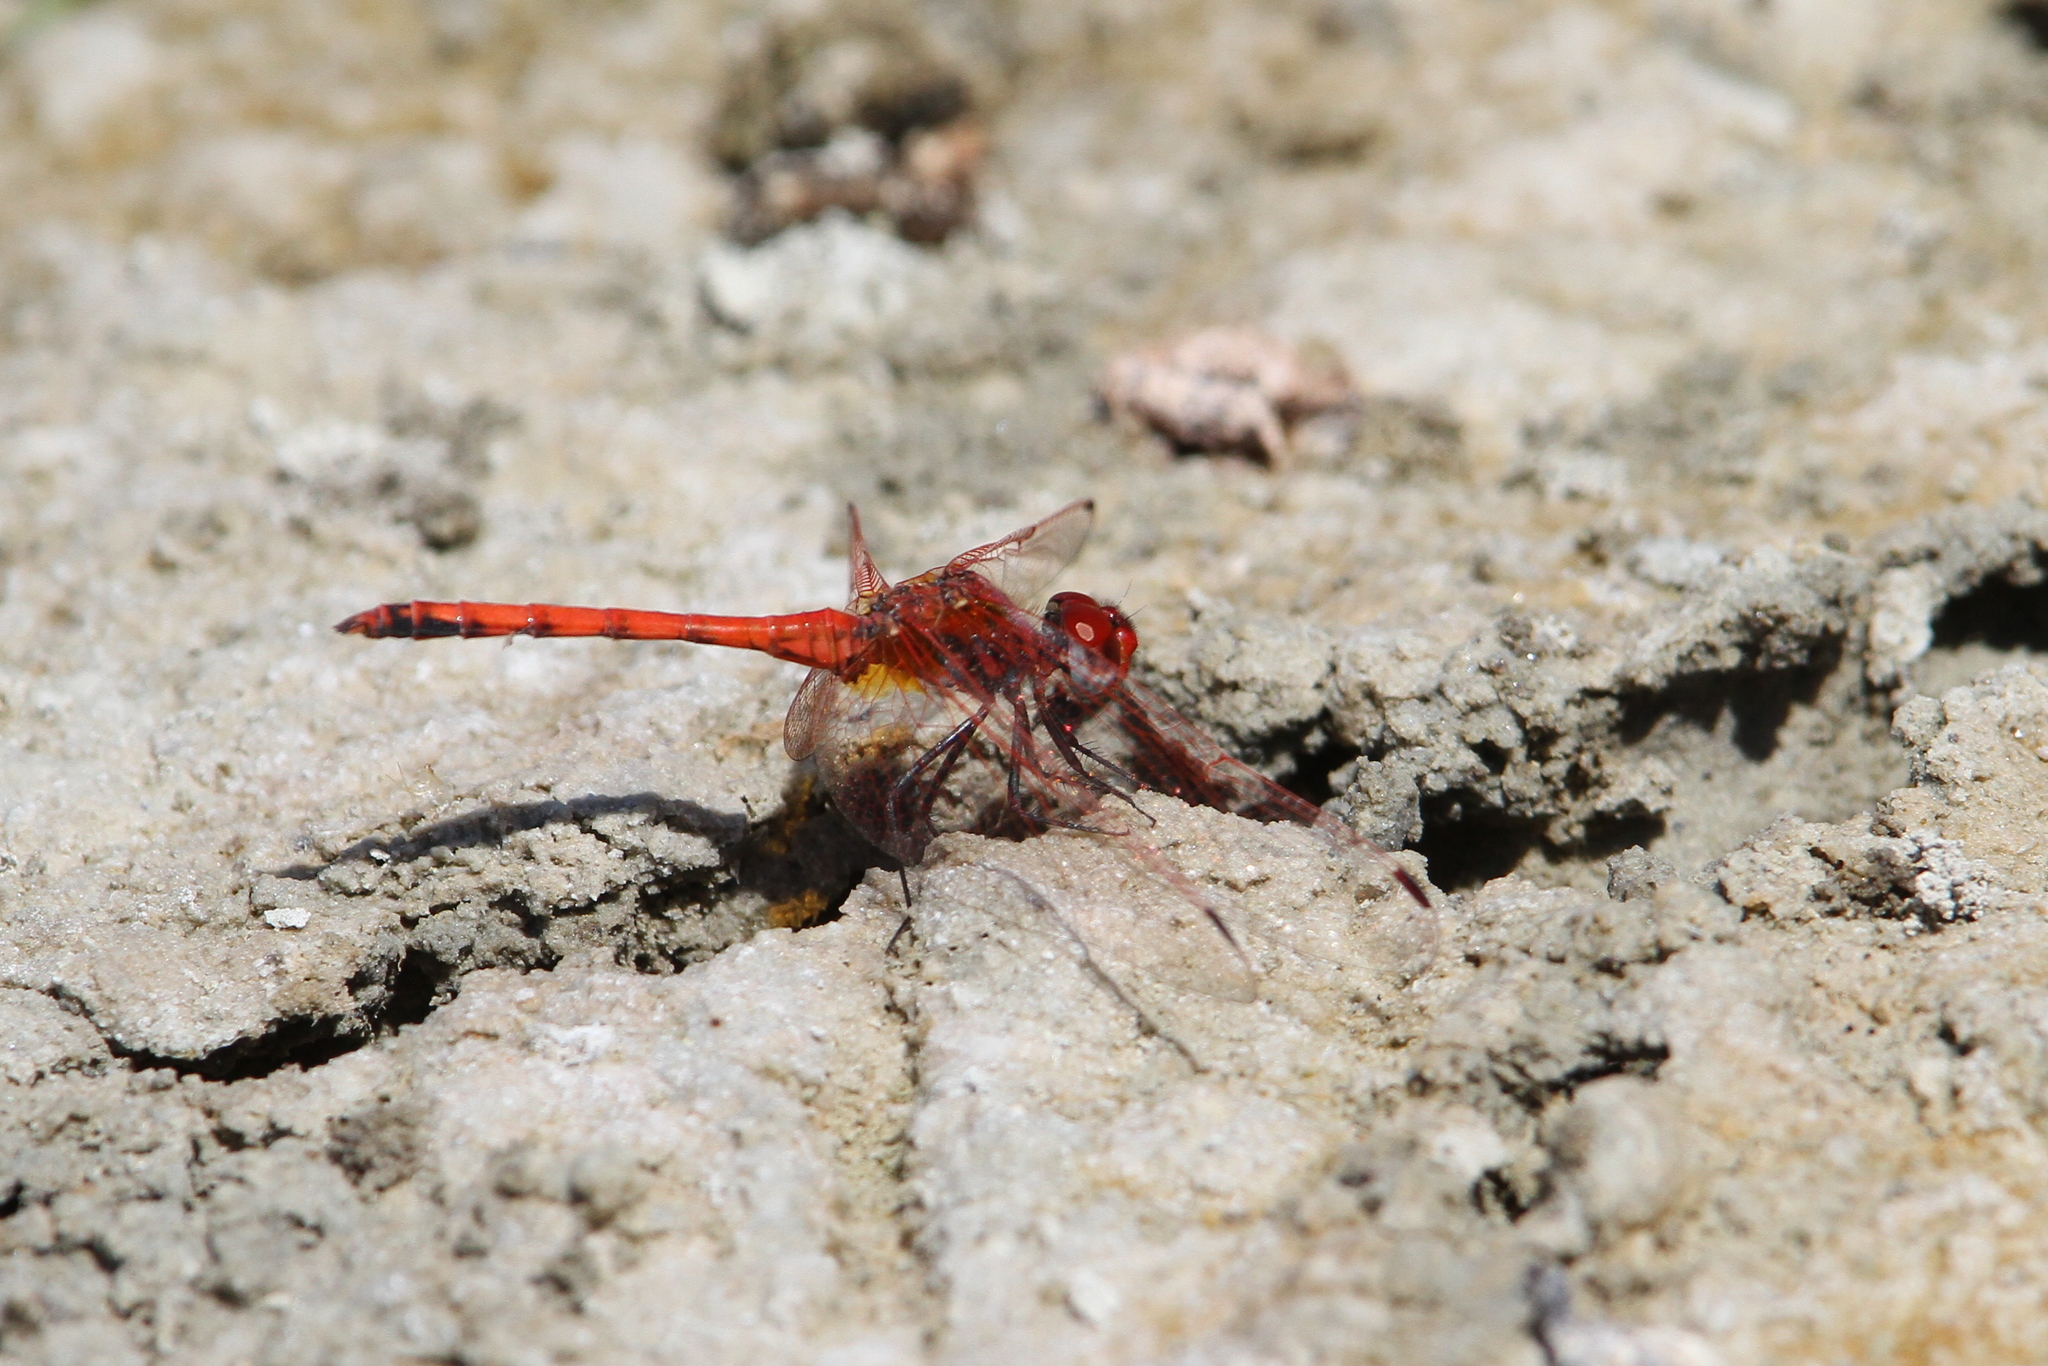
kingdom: Animalia
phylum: Arthropoda
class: Insecta
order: Odonata
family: Libellulidae
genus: Trithemis
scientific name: Trithemis arteriosa
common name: Red-veined dropwing
